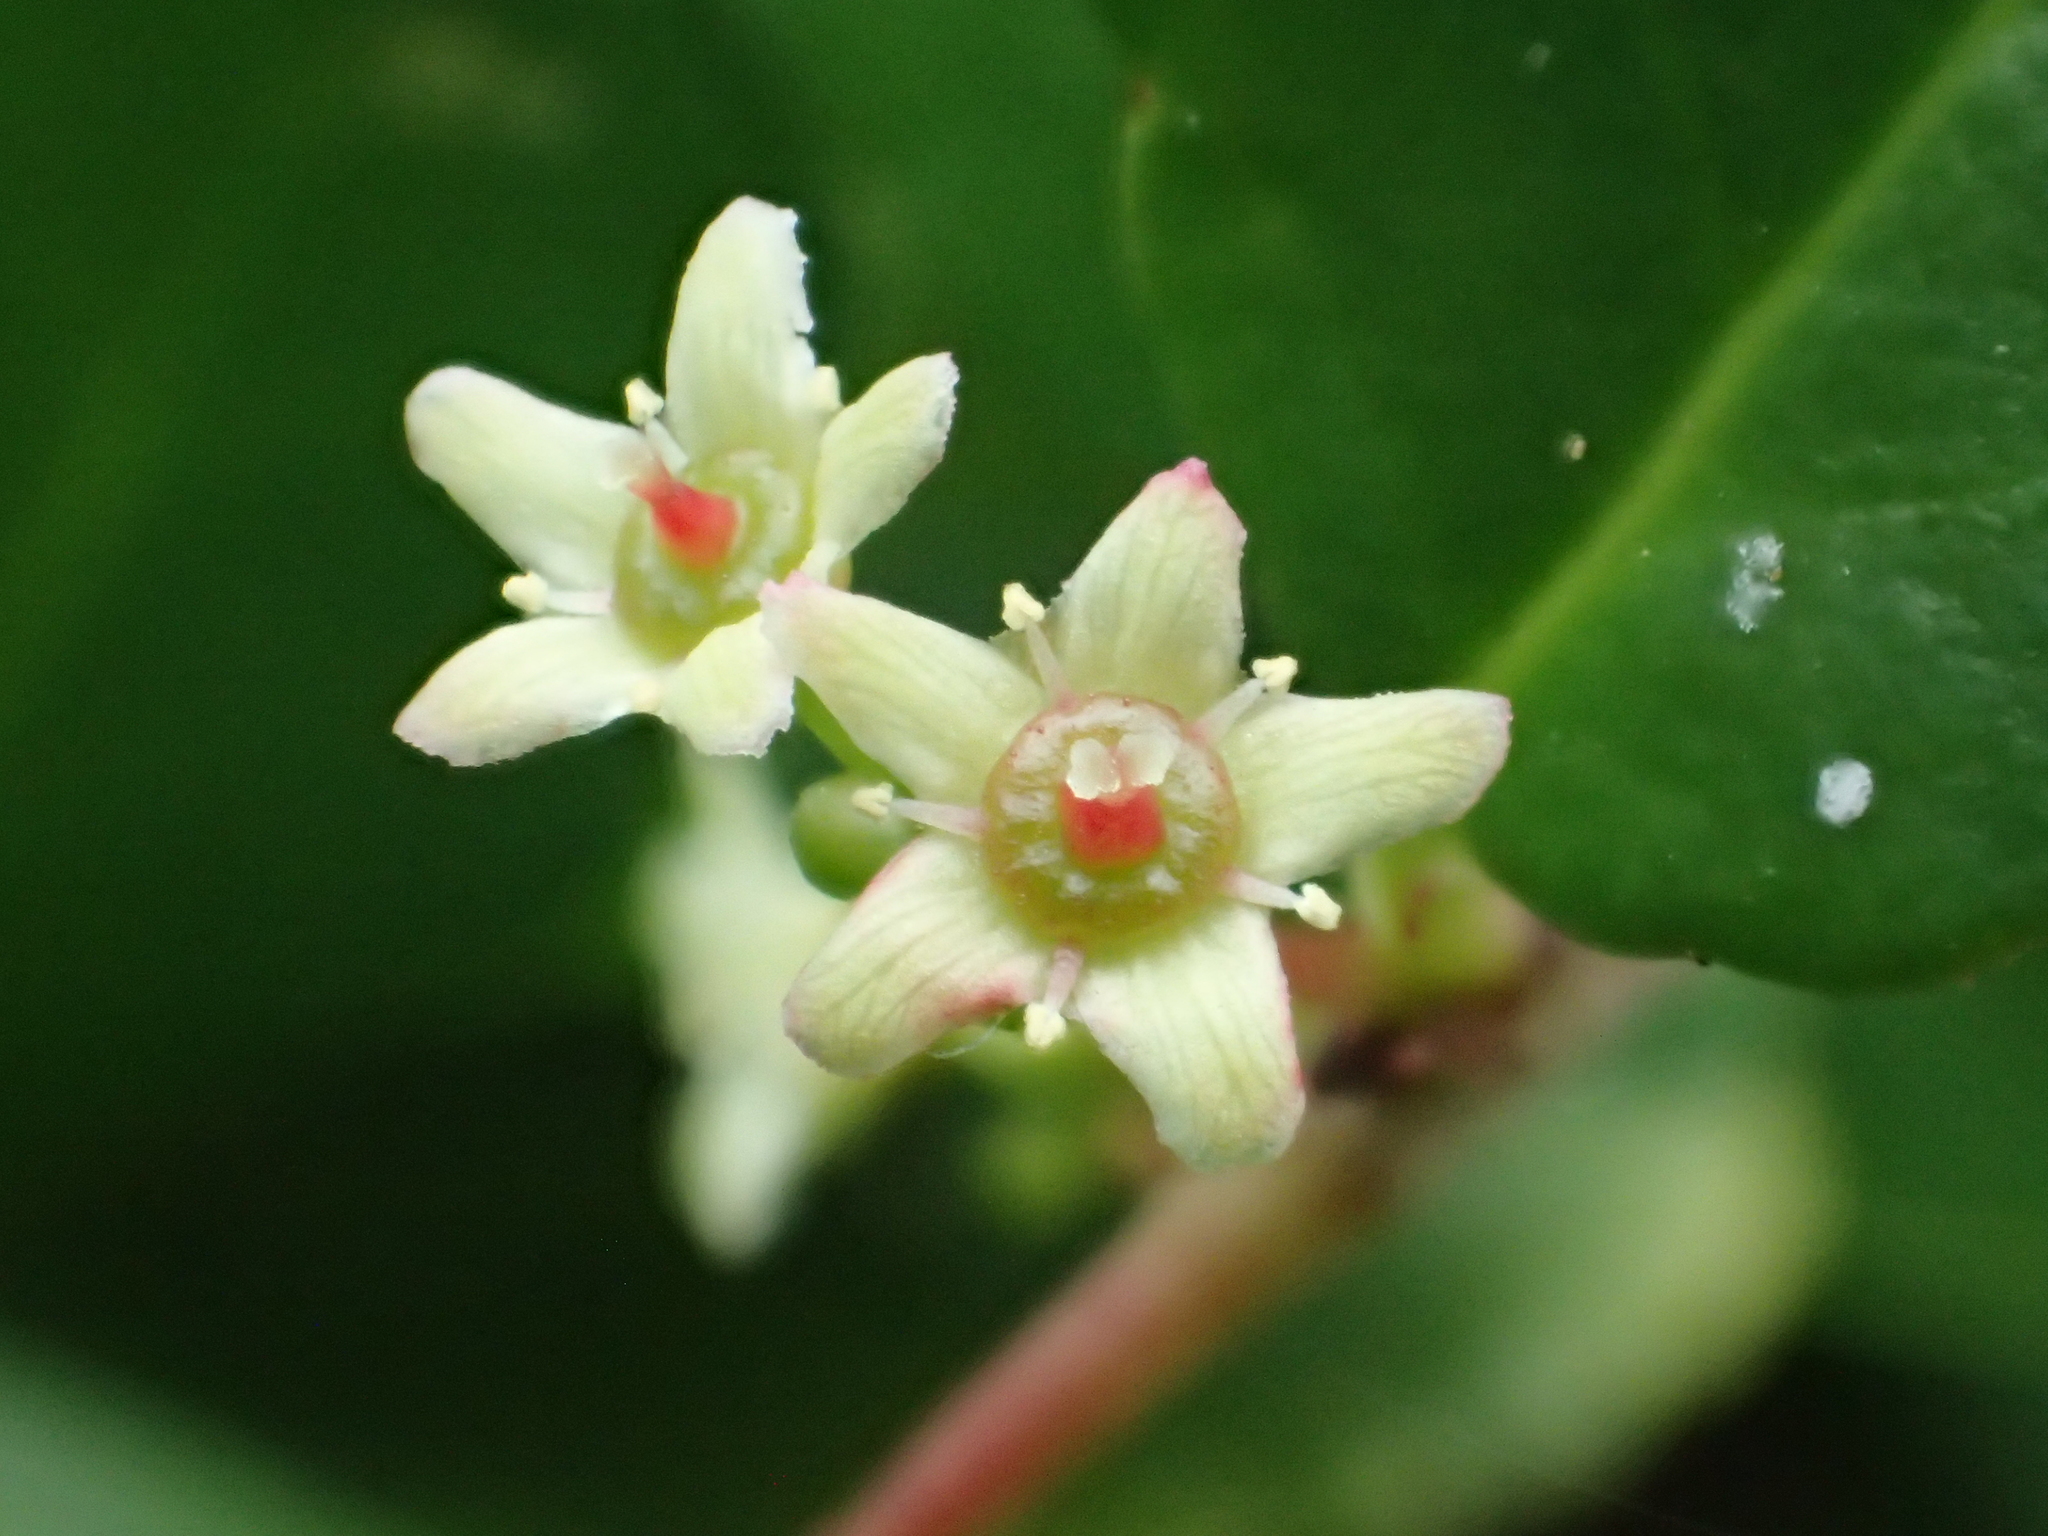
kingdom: Plantae
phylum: Tracheophyta
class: Magnoliopsida
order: Celastrales
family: Celastraceae
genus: Gymnosporia
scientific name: Gymnosporia diversifolia
